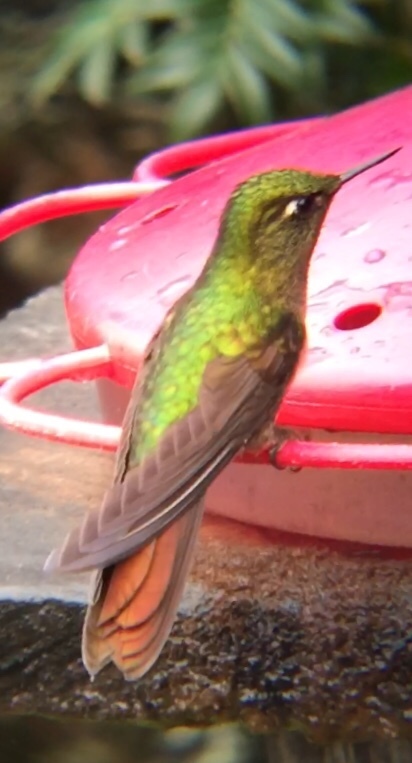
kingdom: Animalia
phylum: Chordata
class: Aves
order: Apodiformes
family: Trochilidae
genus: Metallura
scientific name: Metallura tyrianthina
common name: Tyrian metaltail
